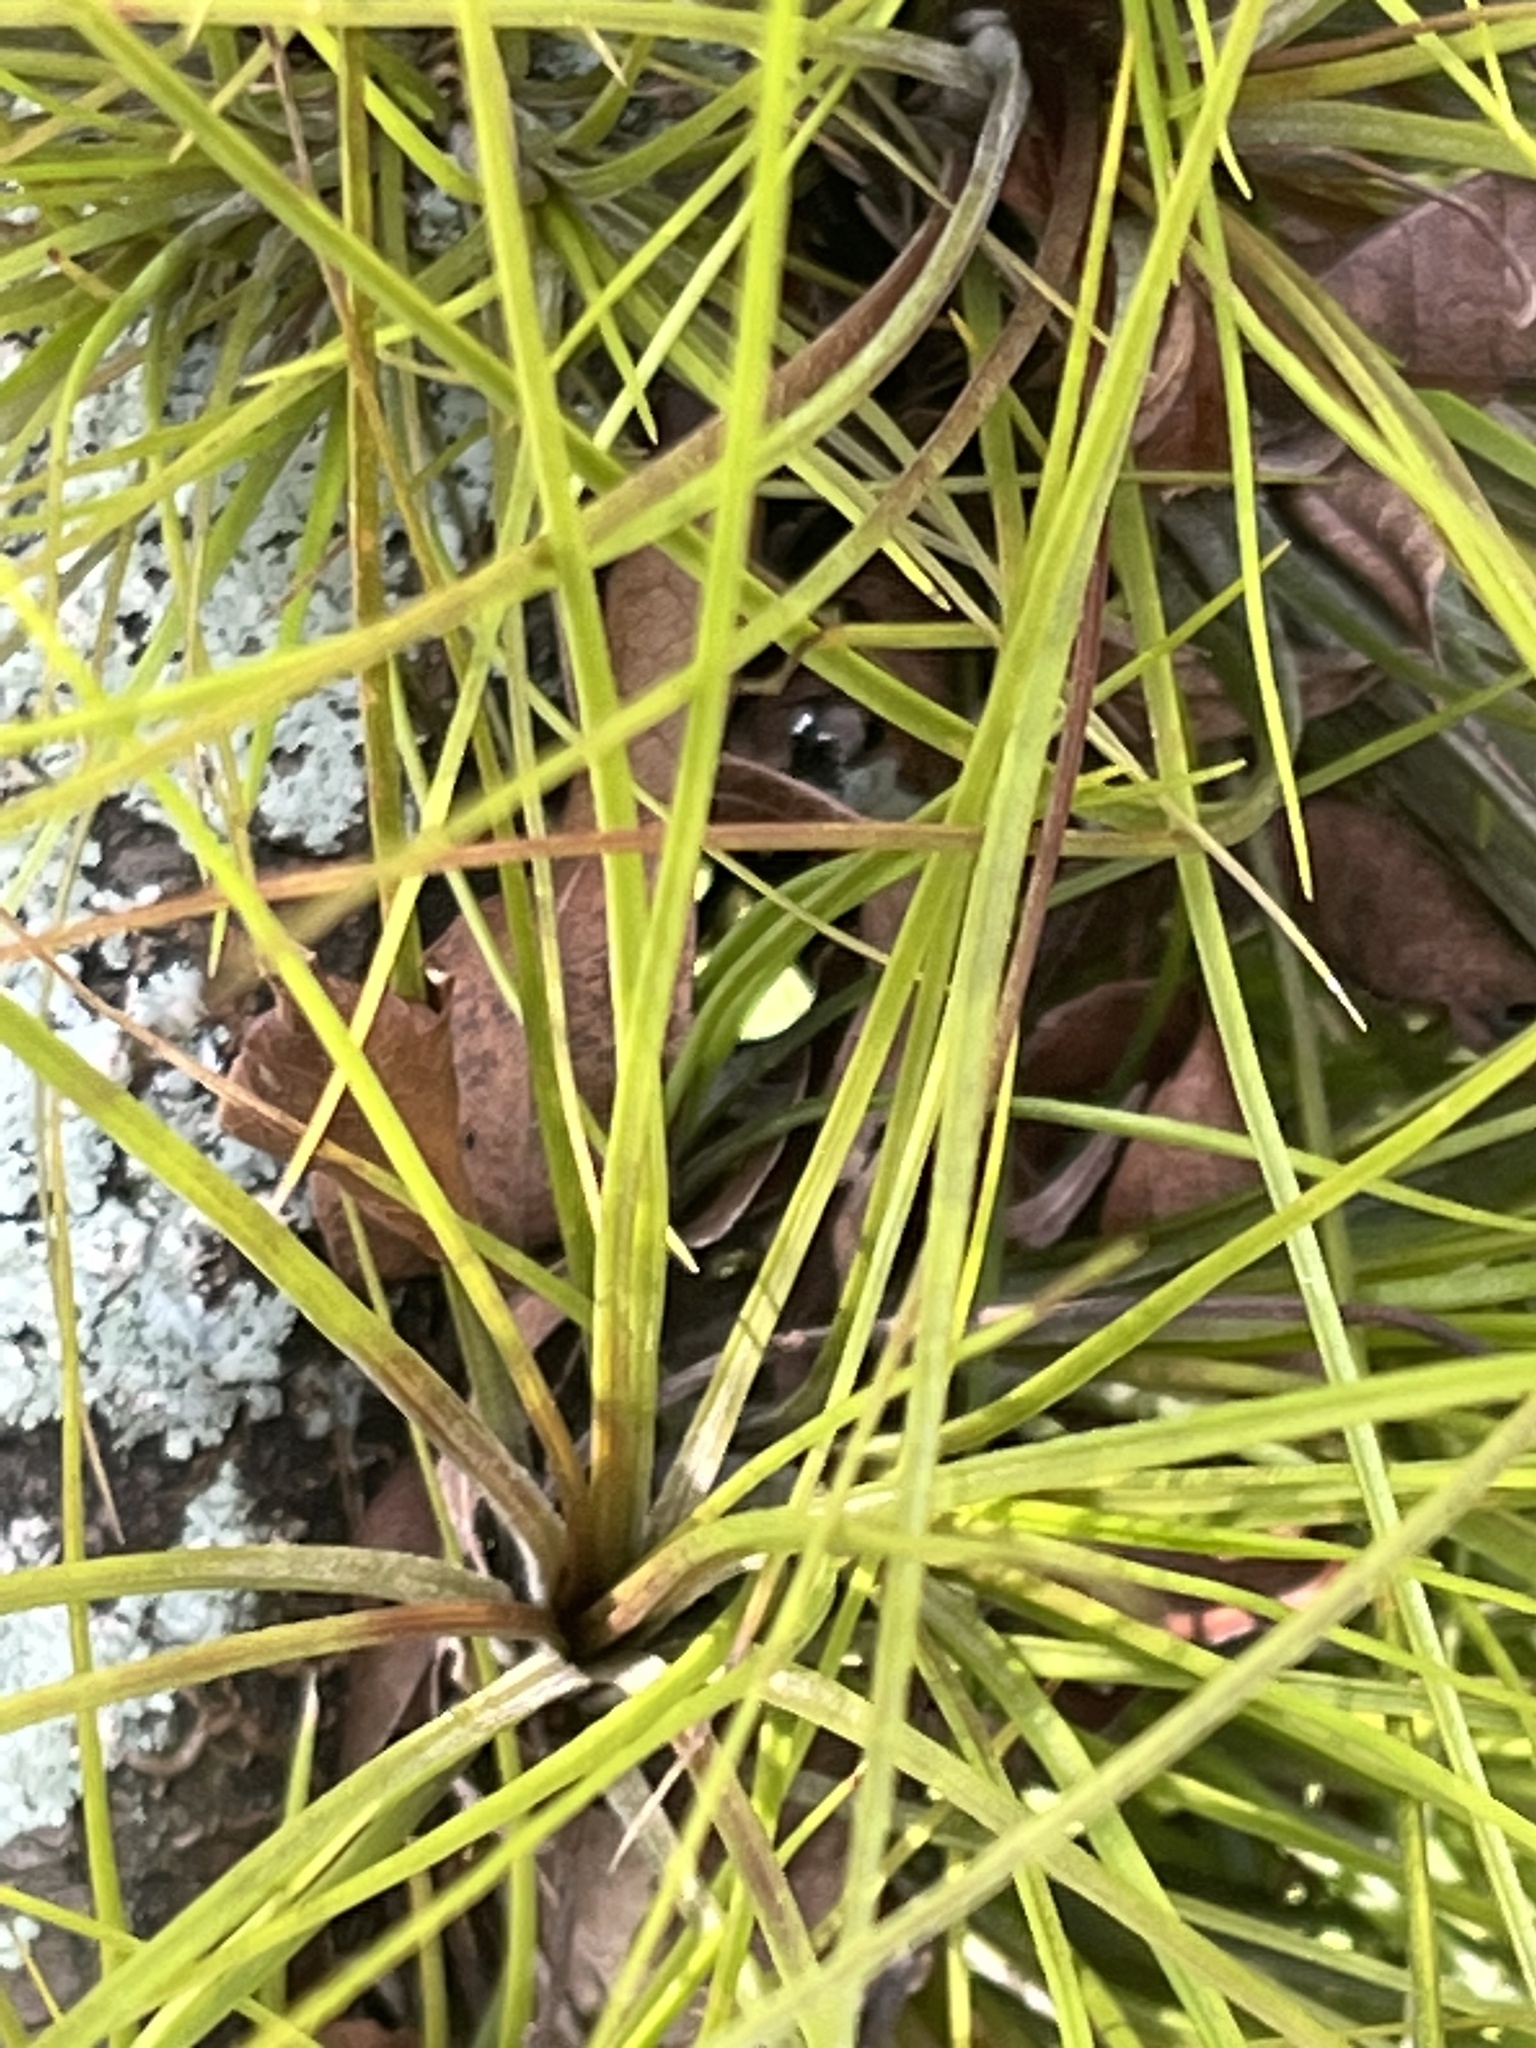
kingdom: Plantae
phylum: Tracheophyta
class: Liliopsida
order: Poales
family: Bromeliaceae
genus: Tillandsia
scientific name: Tillandsia setacea
